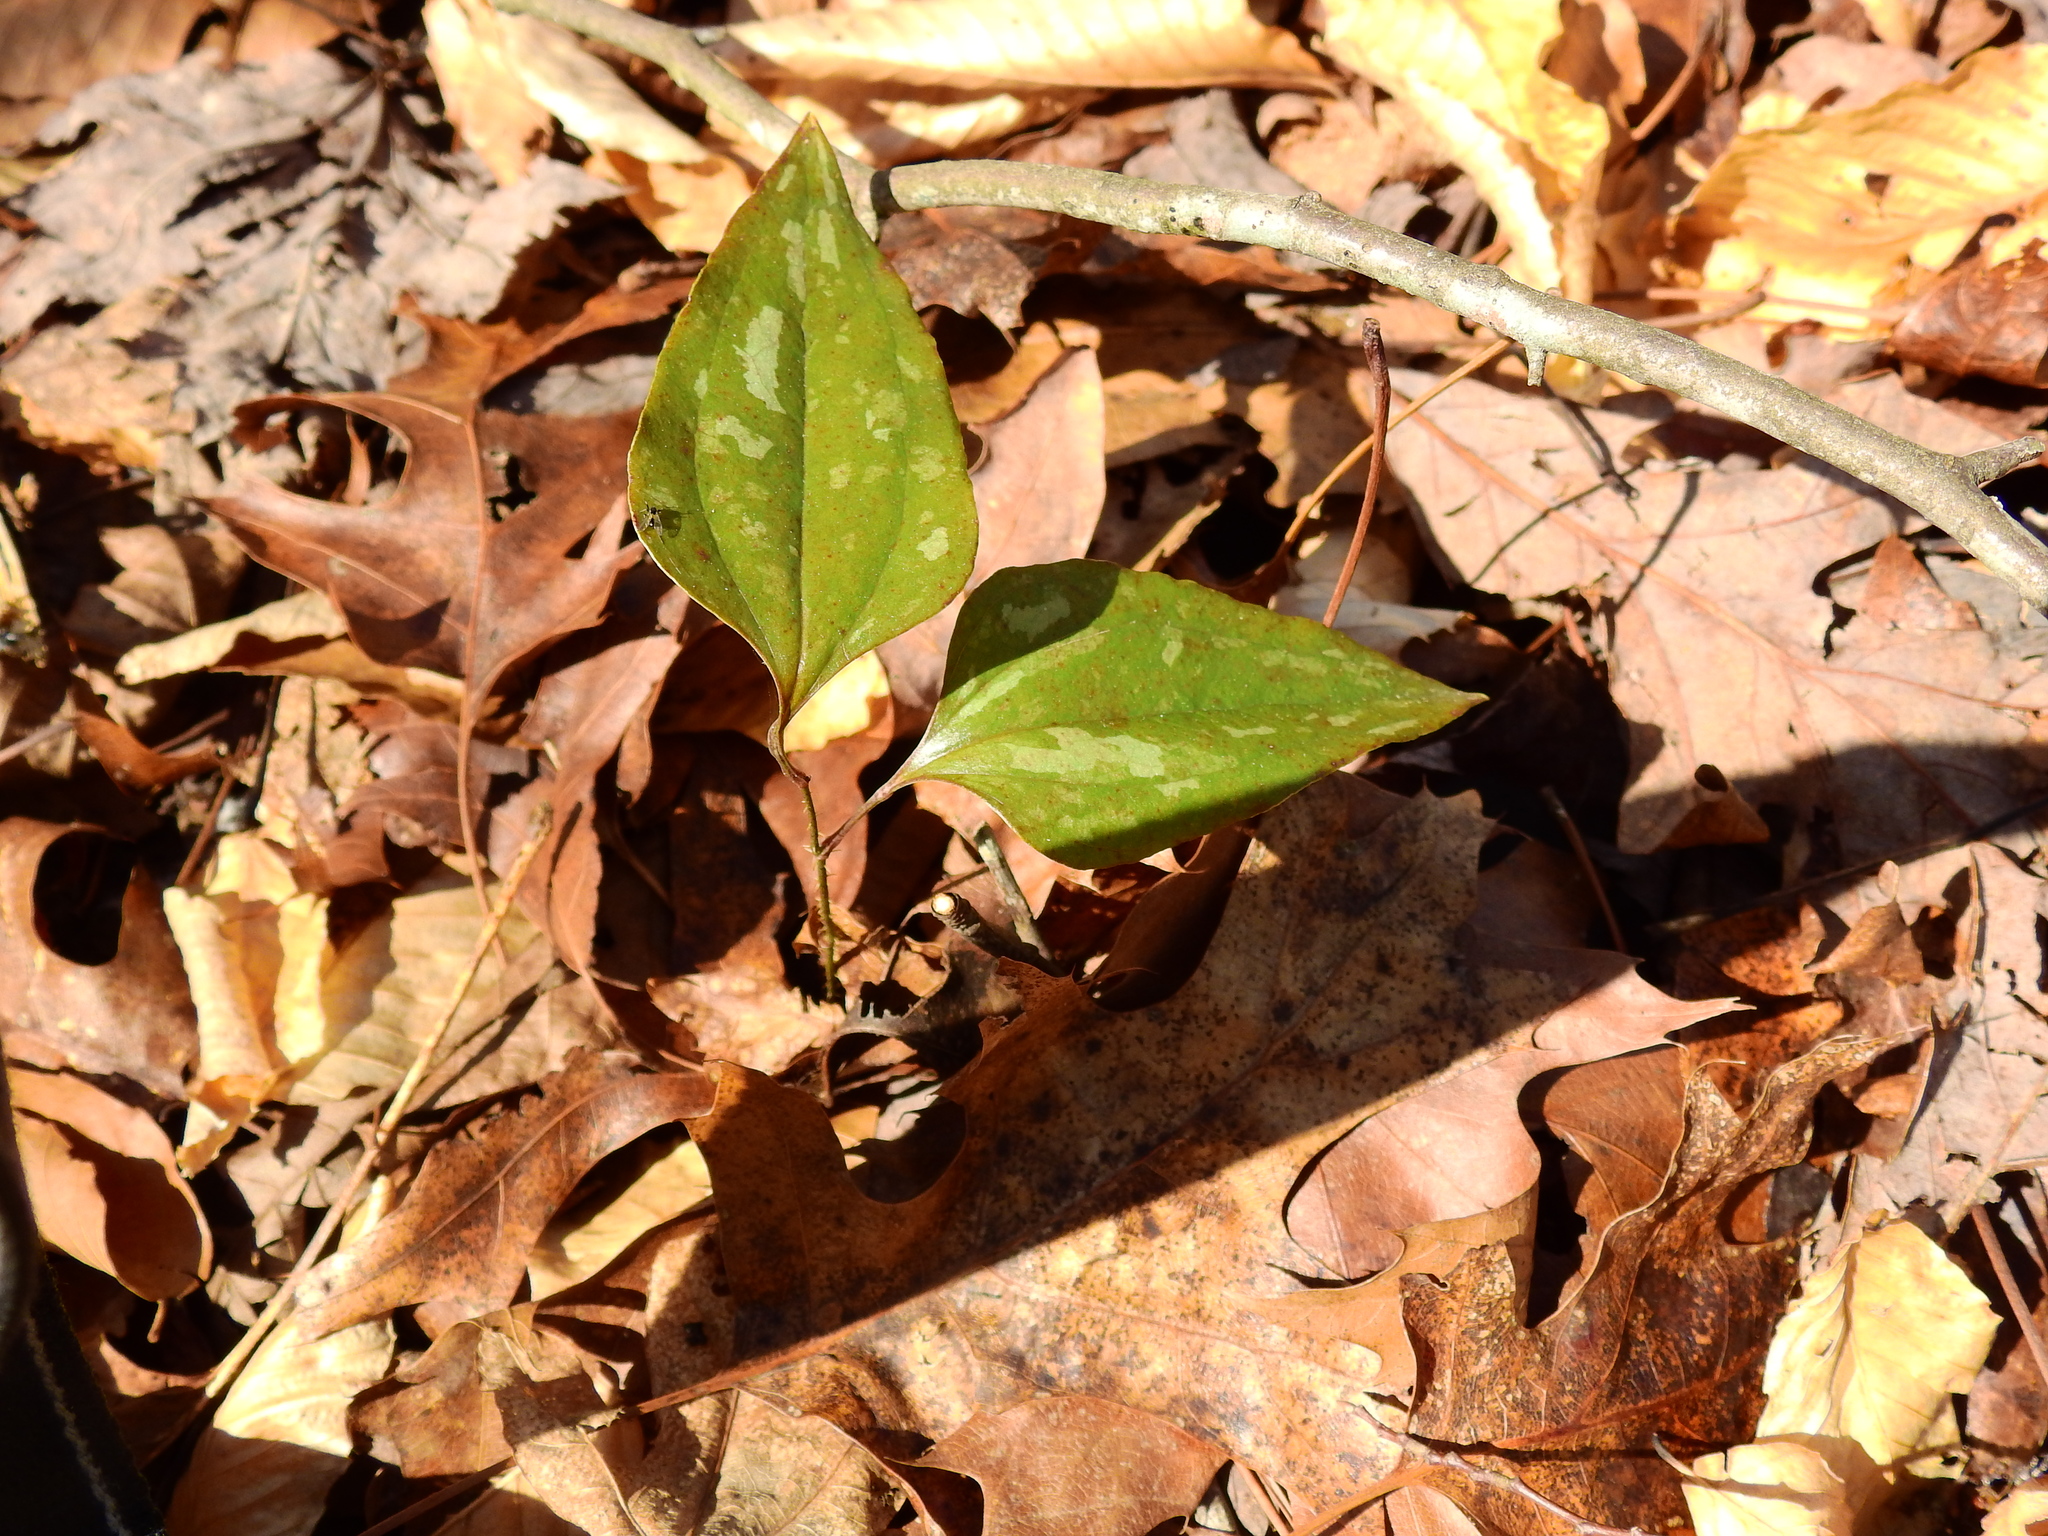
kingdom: Plantae
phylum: Tracheophyta
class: Liliopsida
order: Liliales
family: Smilacaceae
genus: Smilax
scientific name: Smilax glauca
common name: Cat greenbrier
